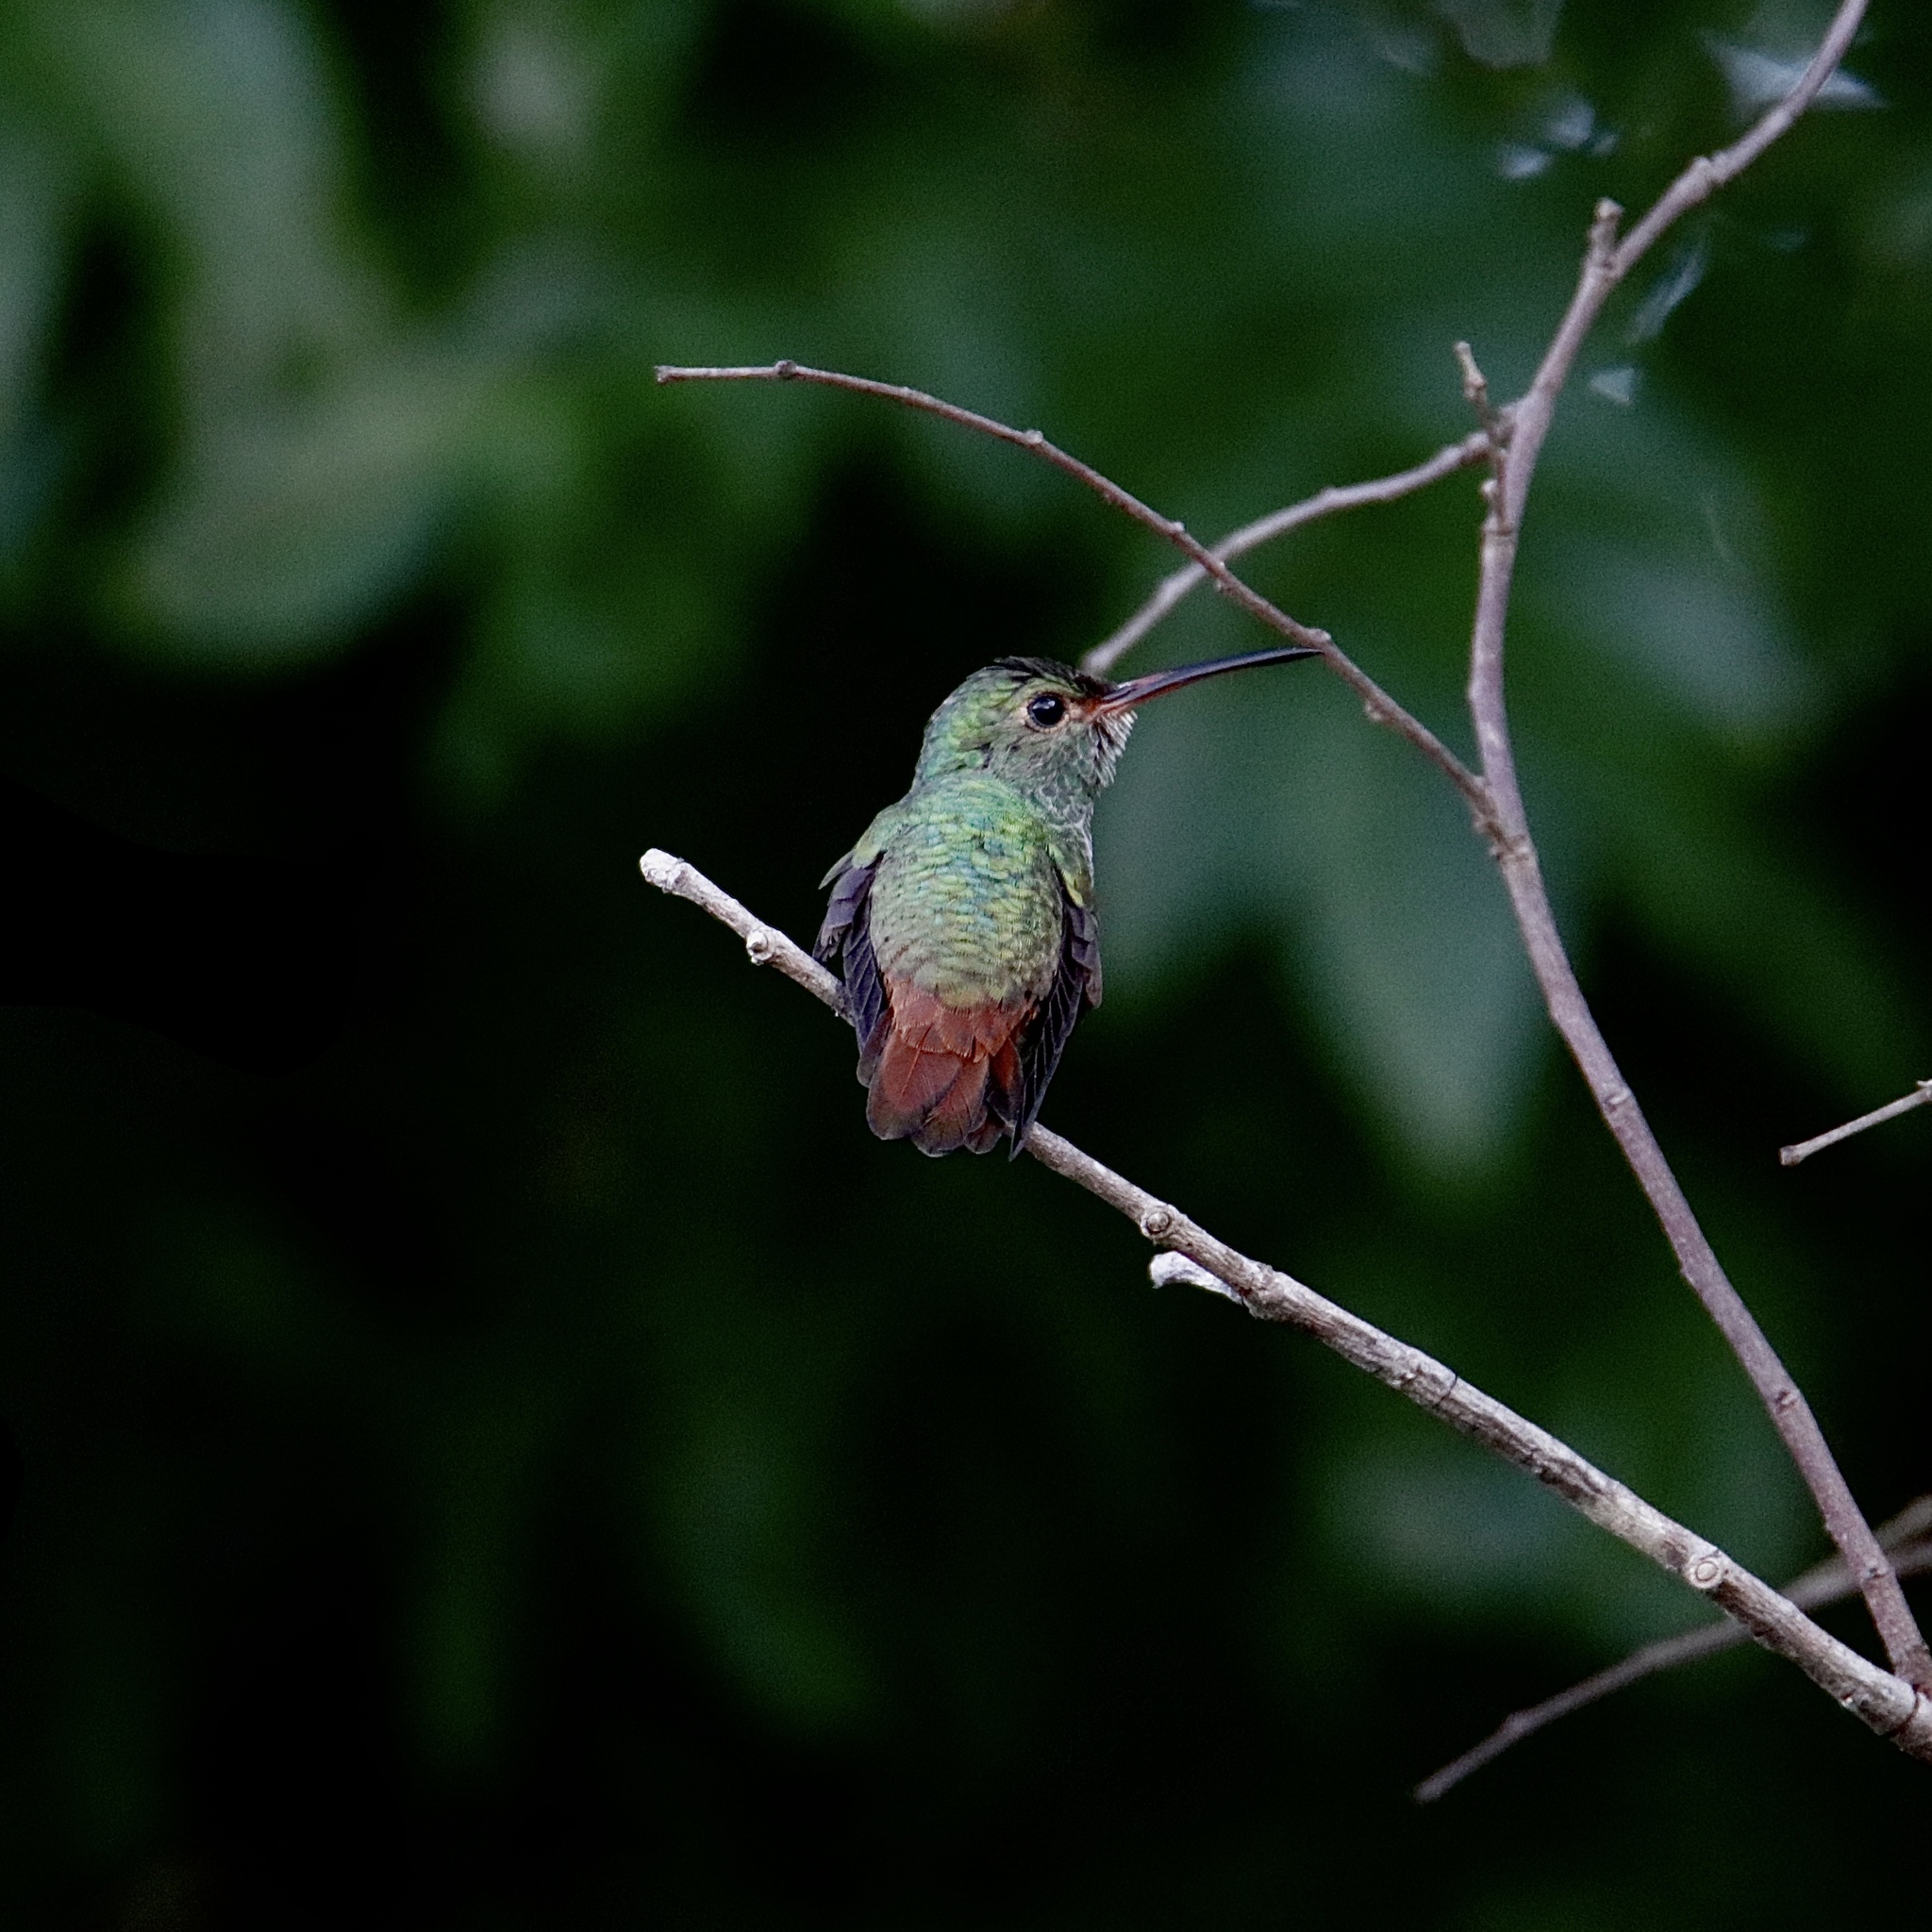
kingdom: Animalia
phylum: Chordata
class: Aves
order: Apodiformes
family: Trochilidae
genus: Amazilia
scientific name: Amazilia tzacatl
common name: Rufous-tailed hummingbird
